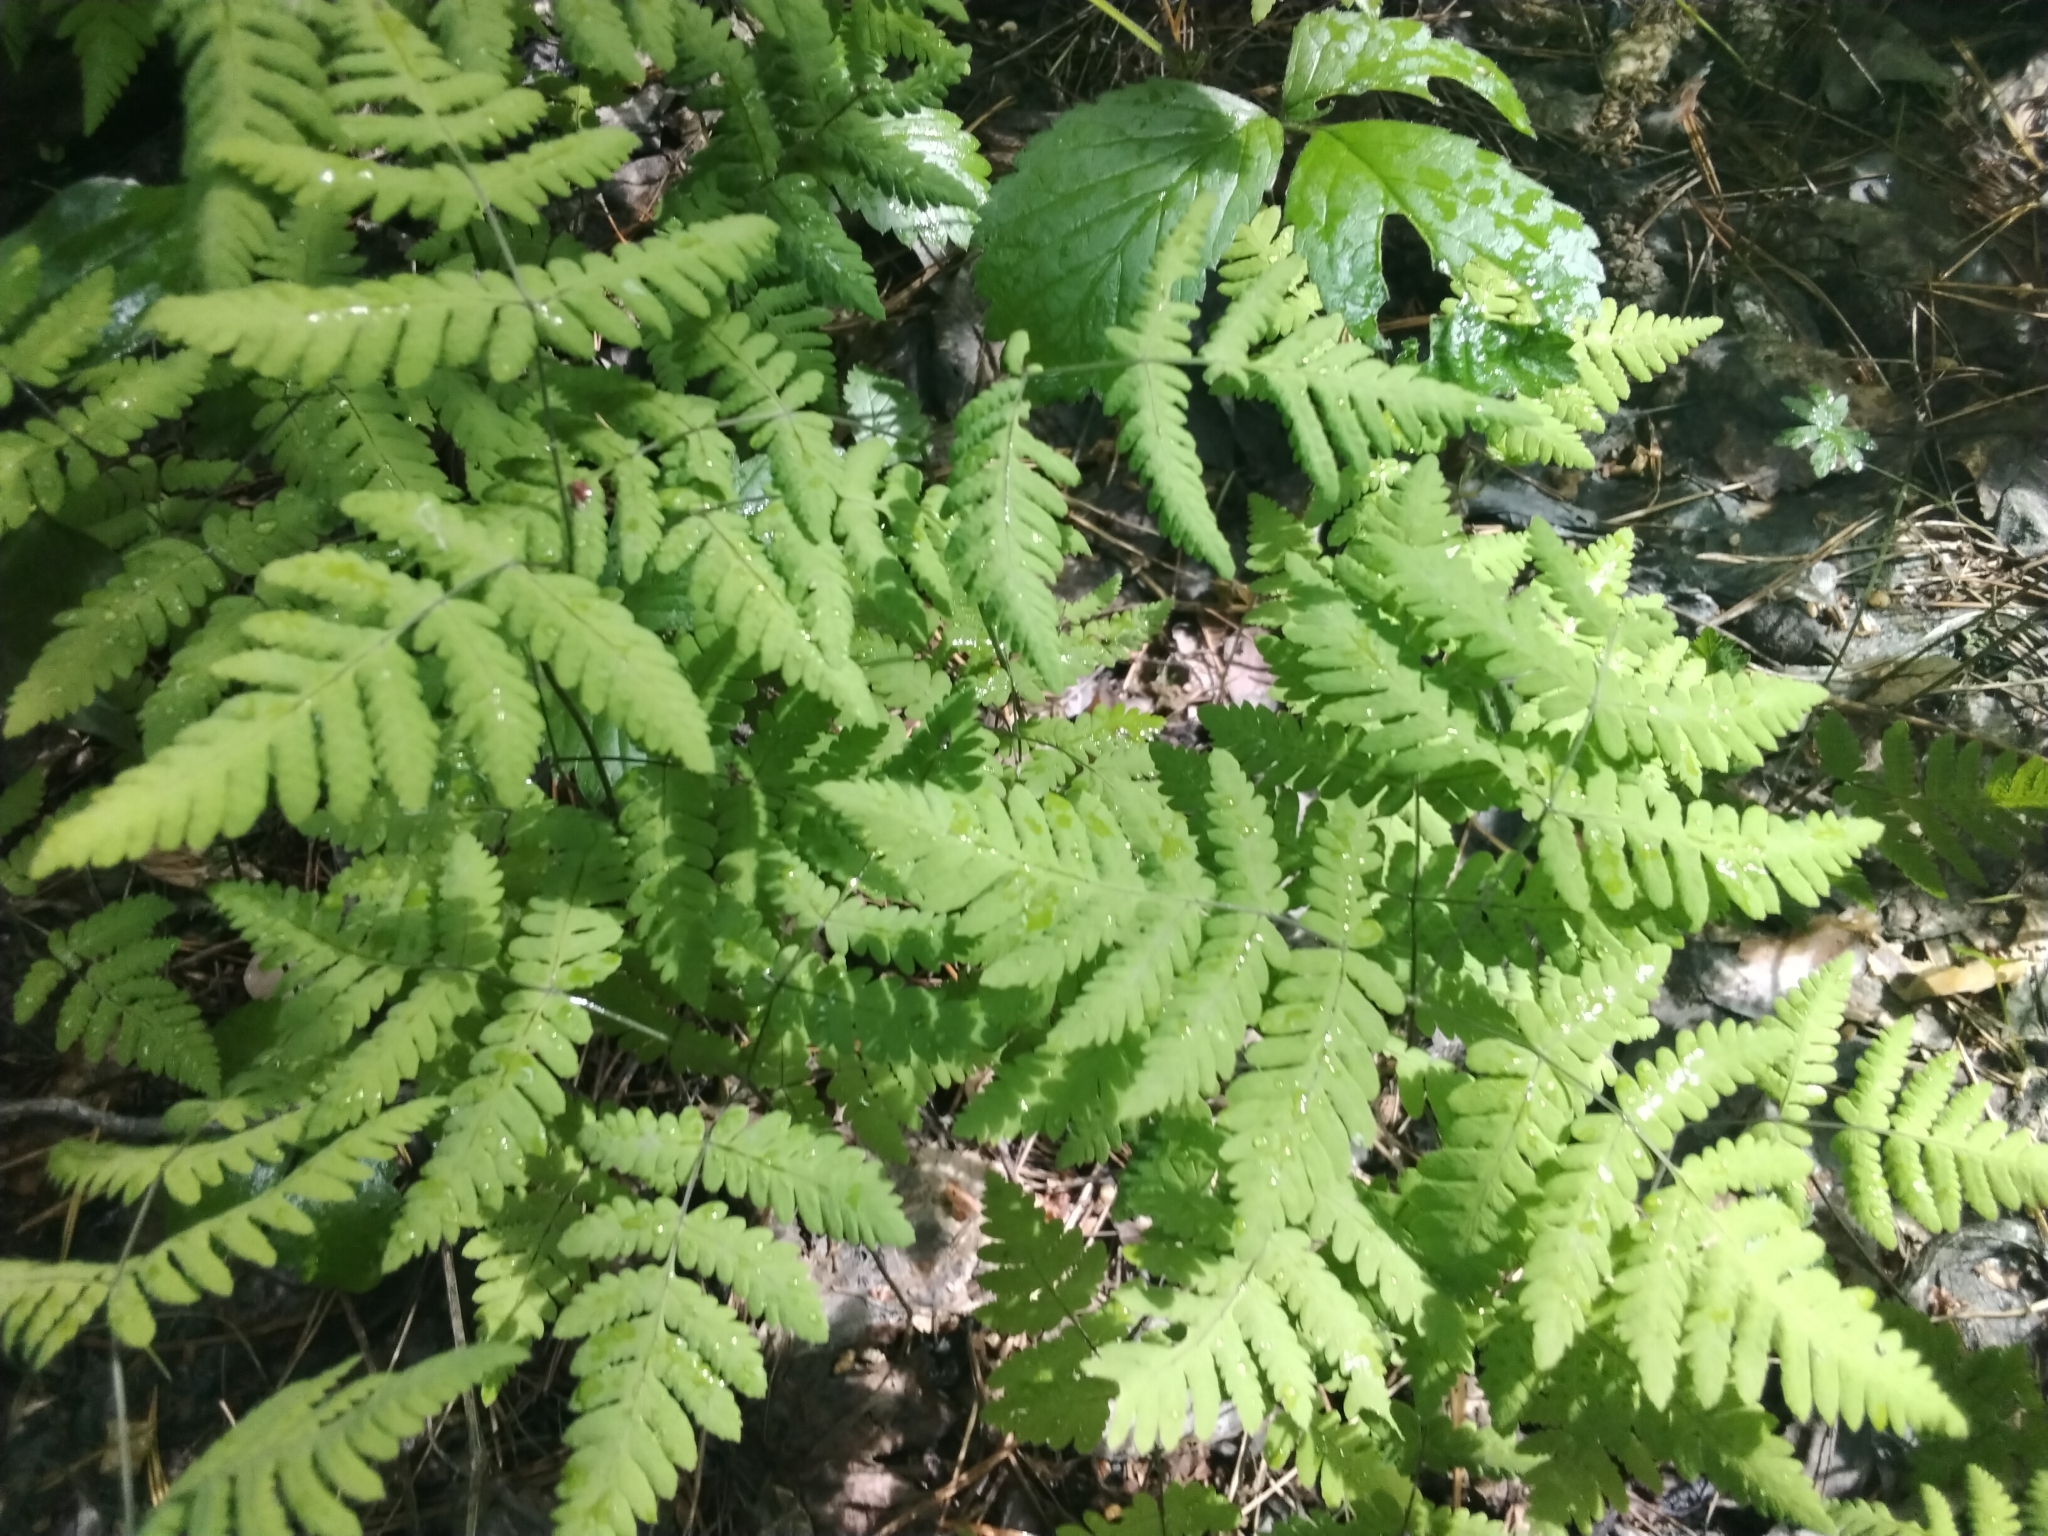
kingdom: Plantae
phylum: Tracheophyta
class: Polypodiopsida
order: Polypodiales
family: Cystopteridaceae
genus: Gymnocarpium
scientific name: Gymnocarpium dryopteris
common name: Oak fern
